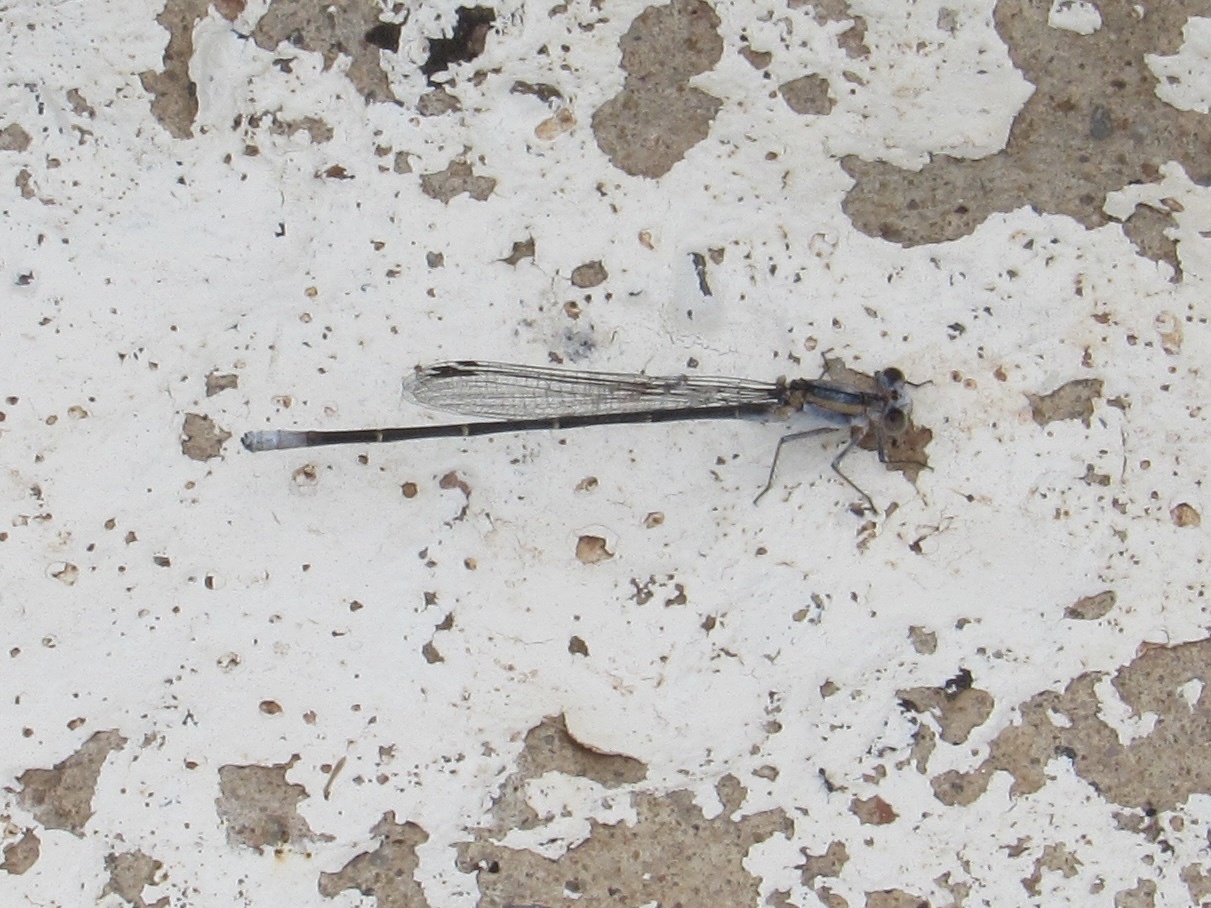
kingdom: Animalia
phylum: Arthropoda
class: Insecta
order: Odonata
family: Coenagrionidae
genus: Argia
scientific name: Argia moesta
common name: Powdered dancer
